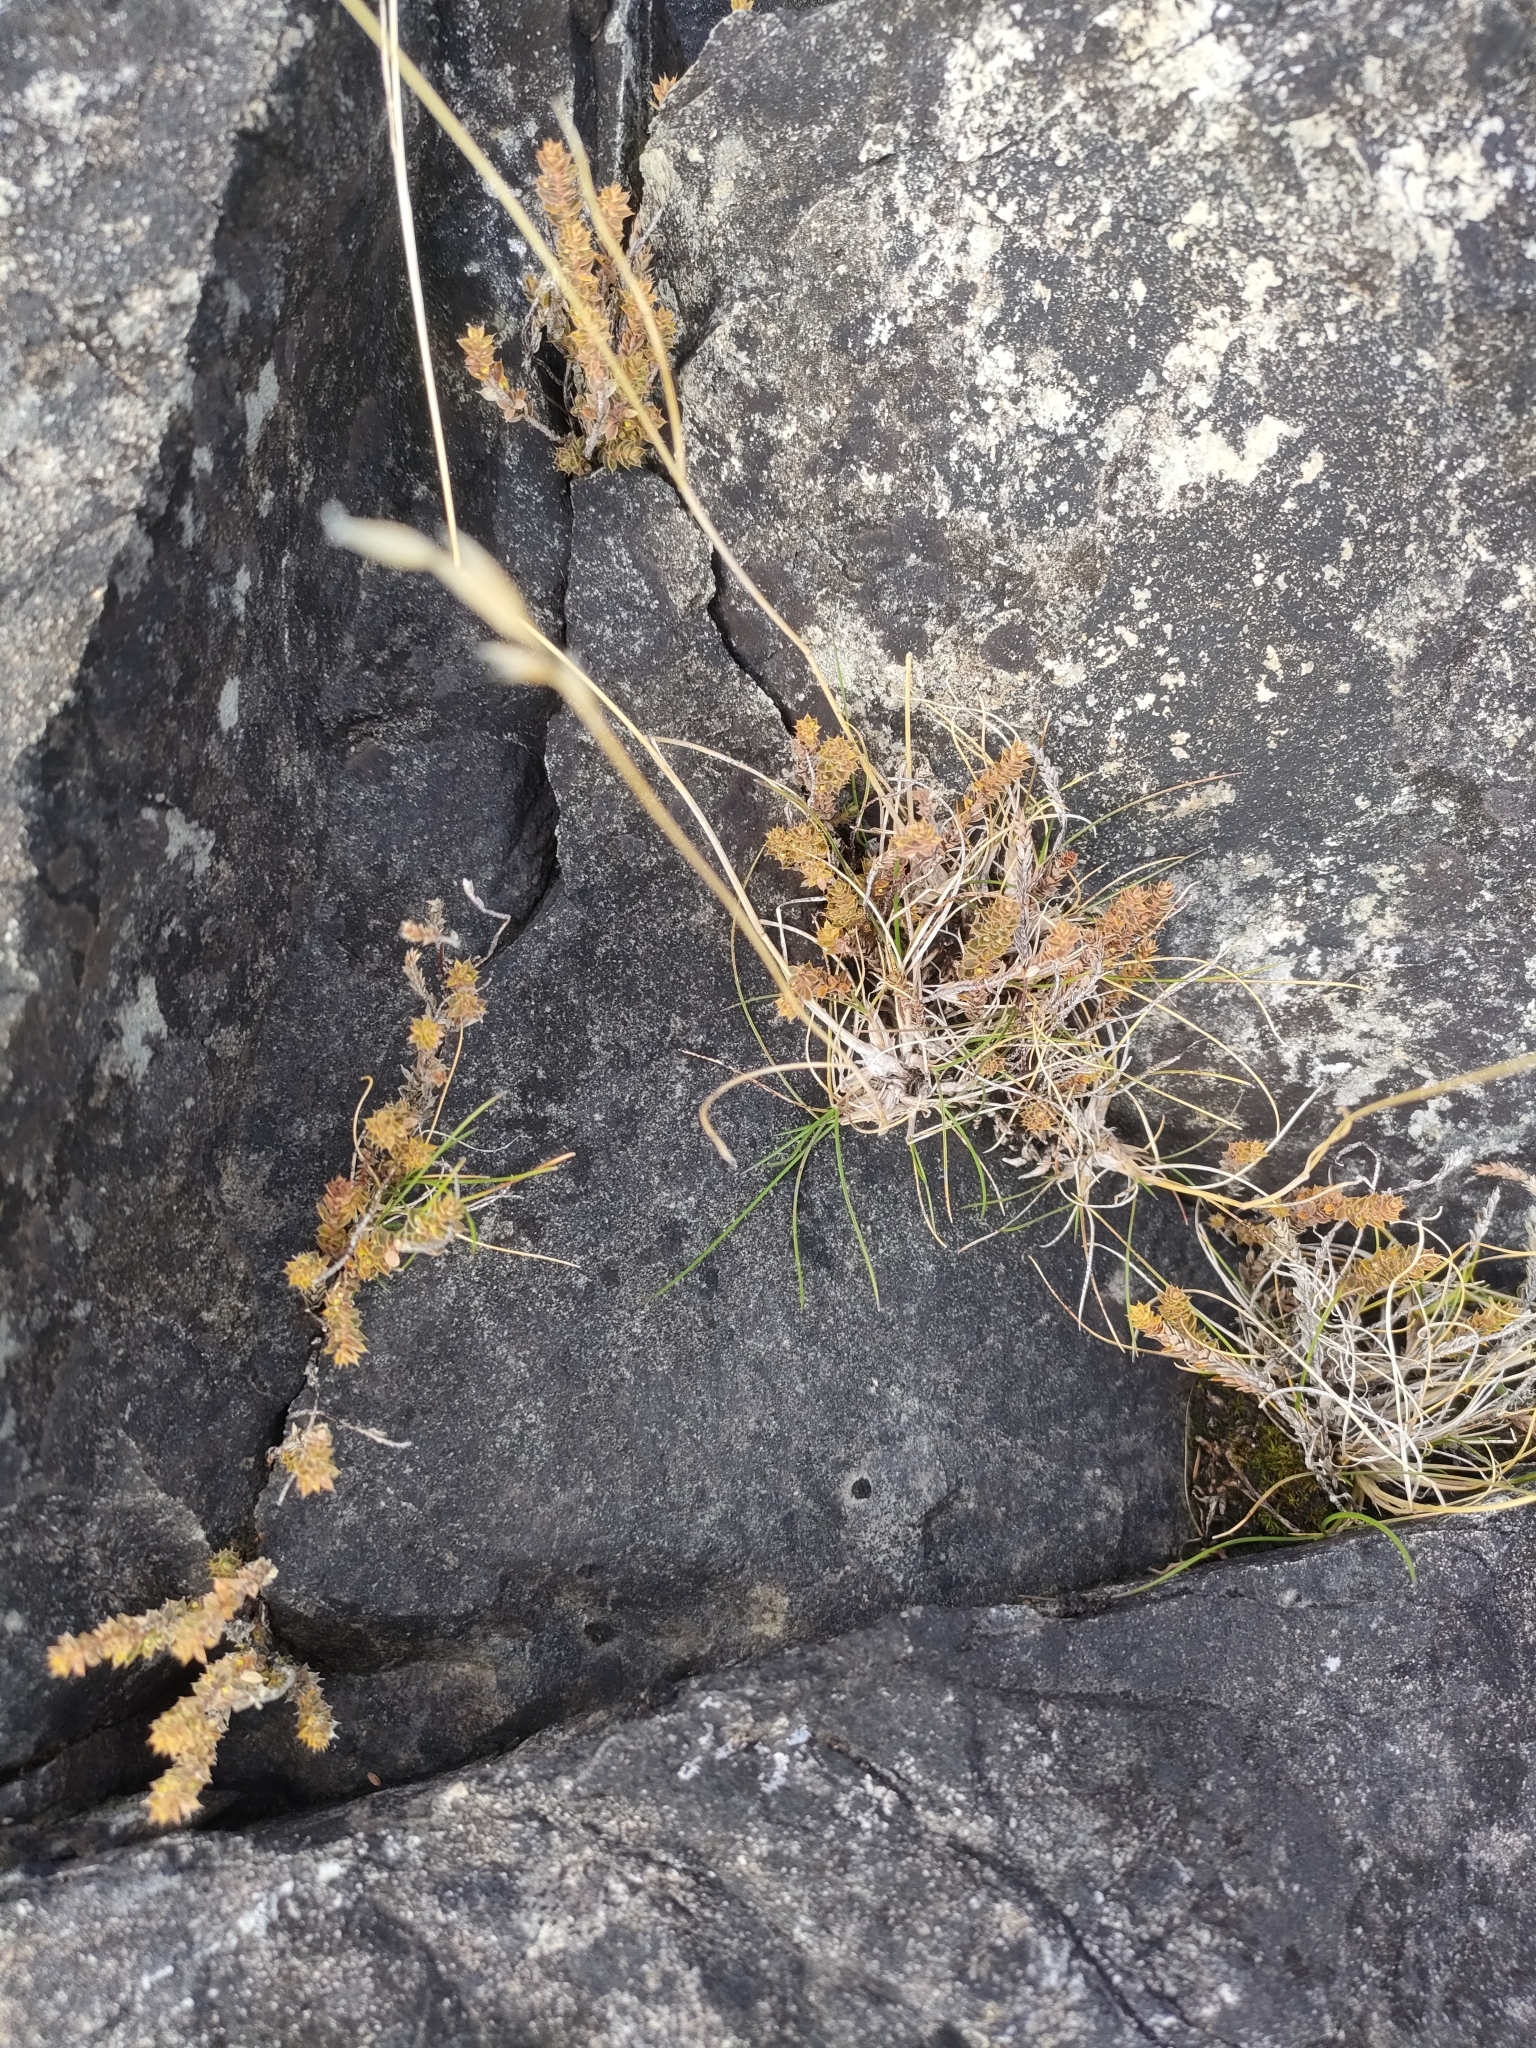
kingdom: Plantae
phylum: Tracheophyta
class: Magnoliopsida
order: Ericales
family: Ericaceae
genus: Styphelia
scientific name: Styphelia nesophila
